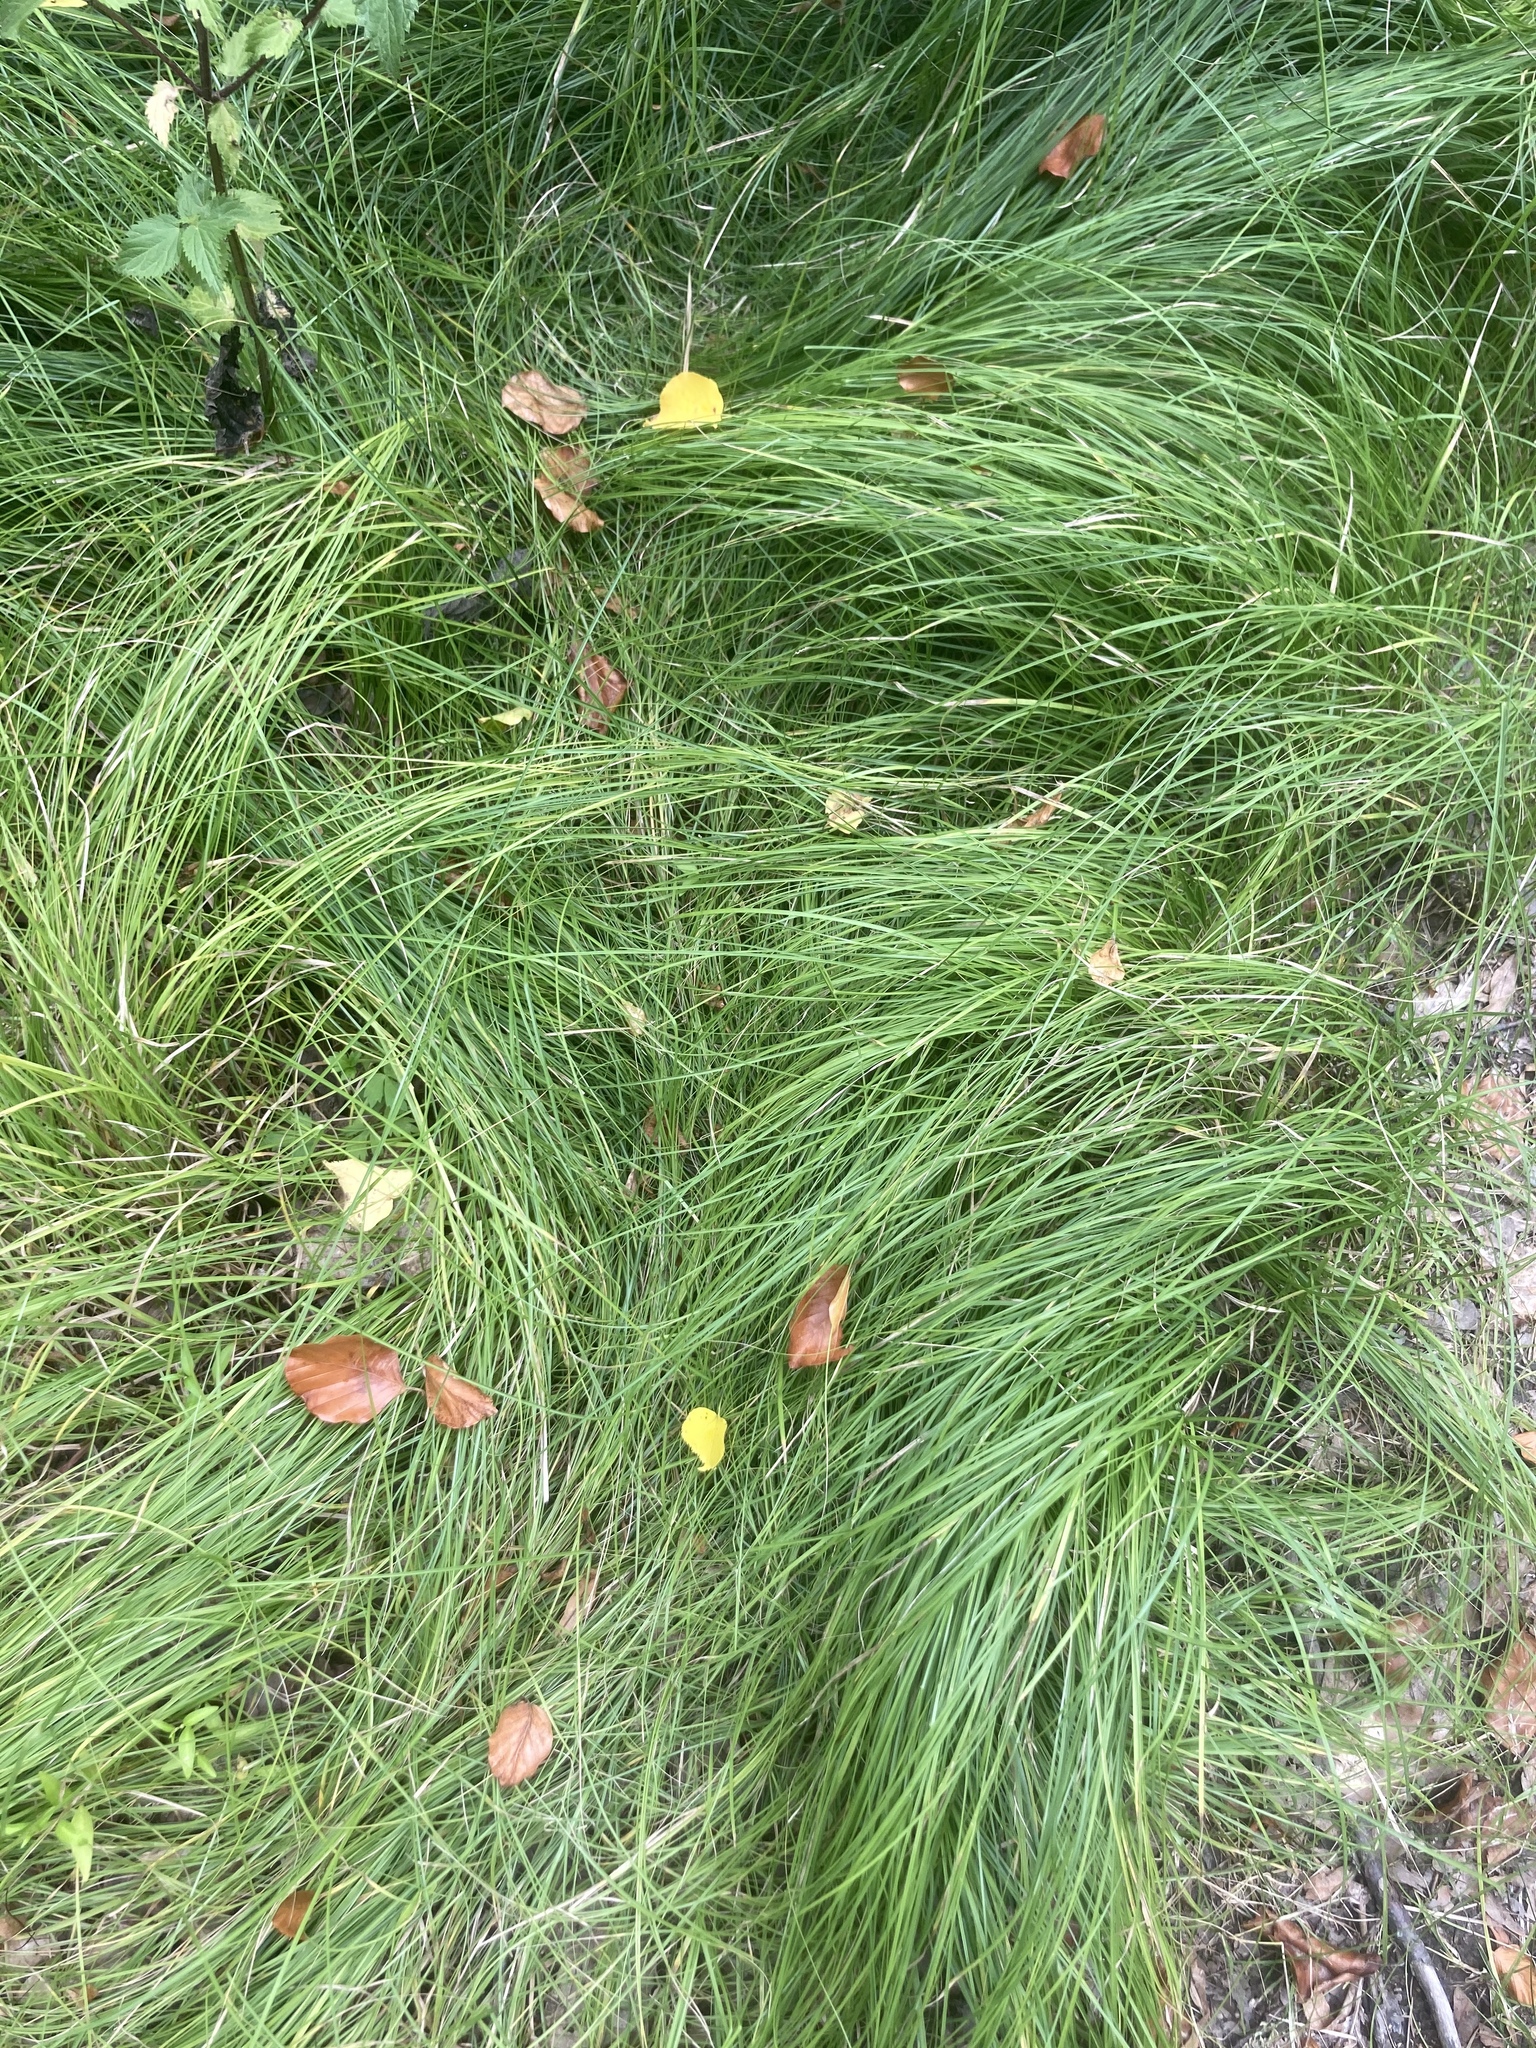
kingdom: Plantae
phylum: Tracheophyta
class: Liliopsida
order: Poales
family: Cyperaceae
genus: Carex
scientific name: Carex brizoides
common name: Quaking-grass sedge
